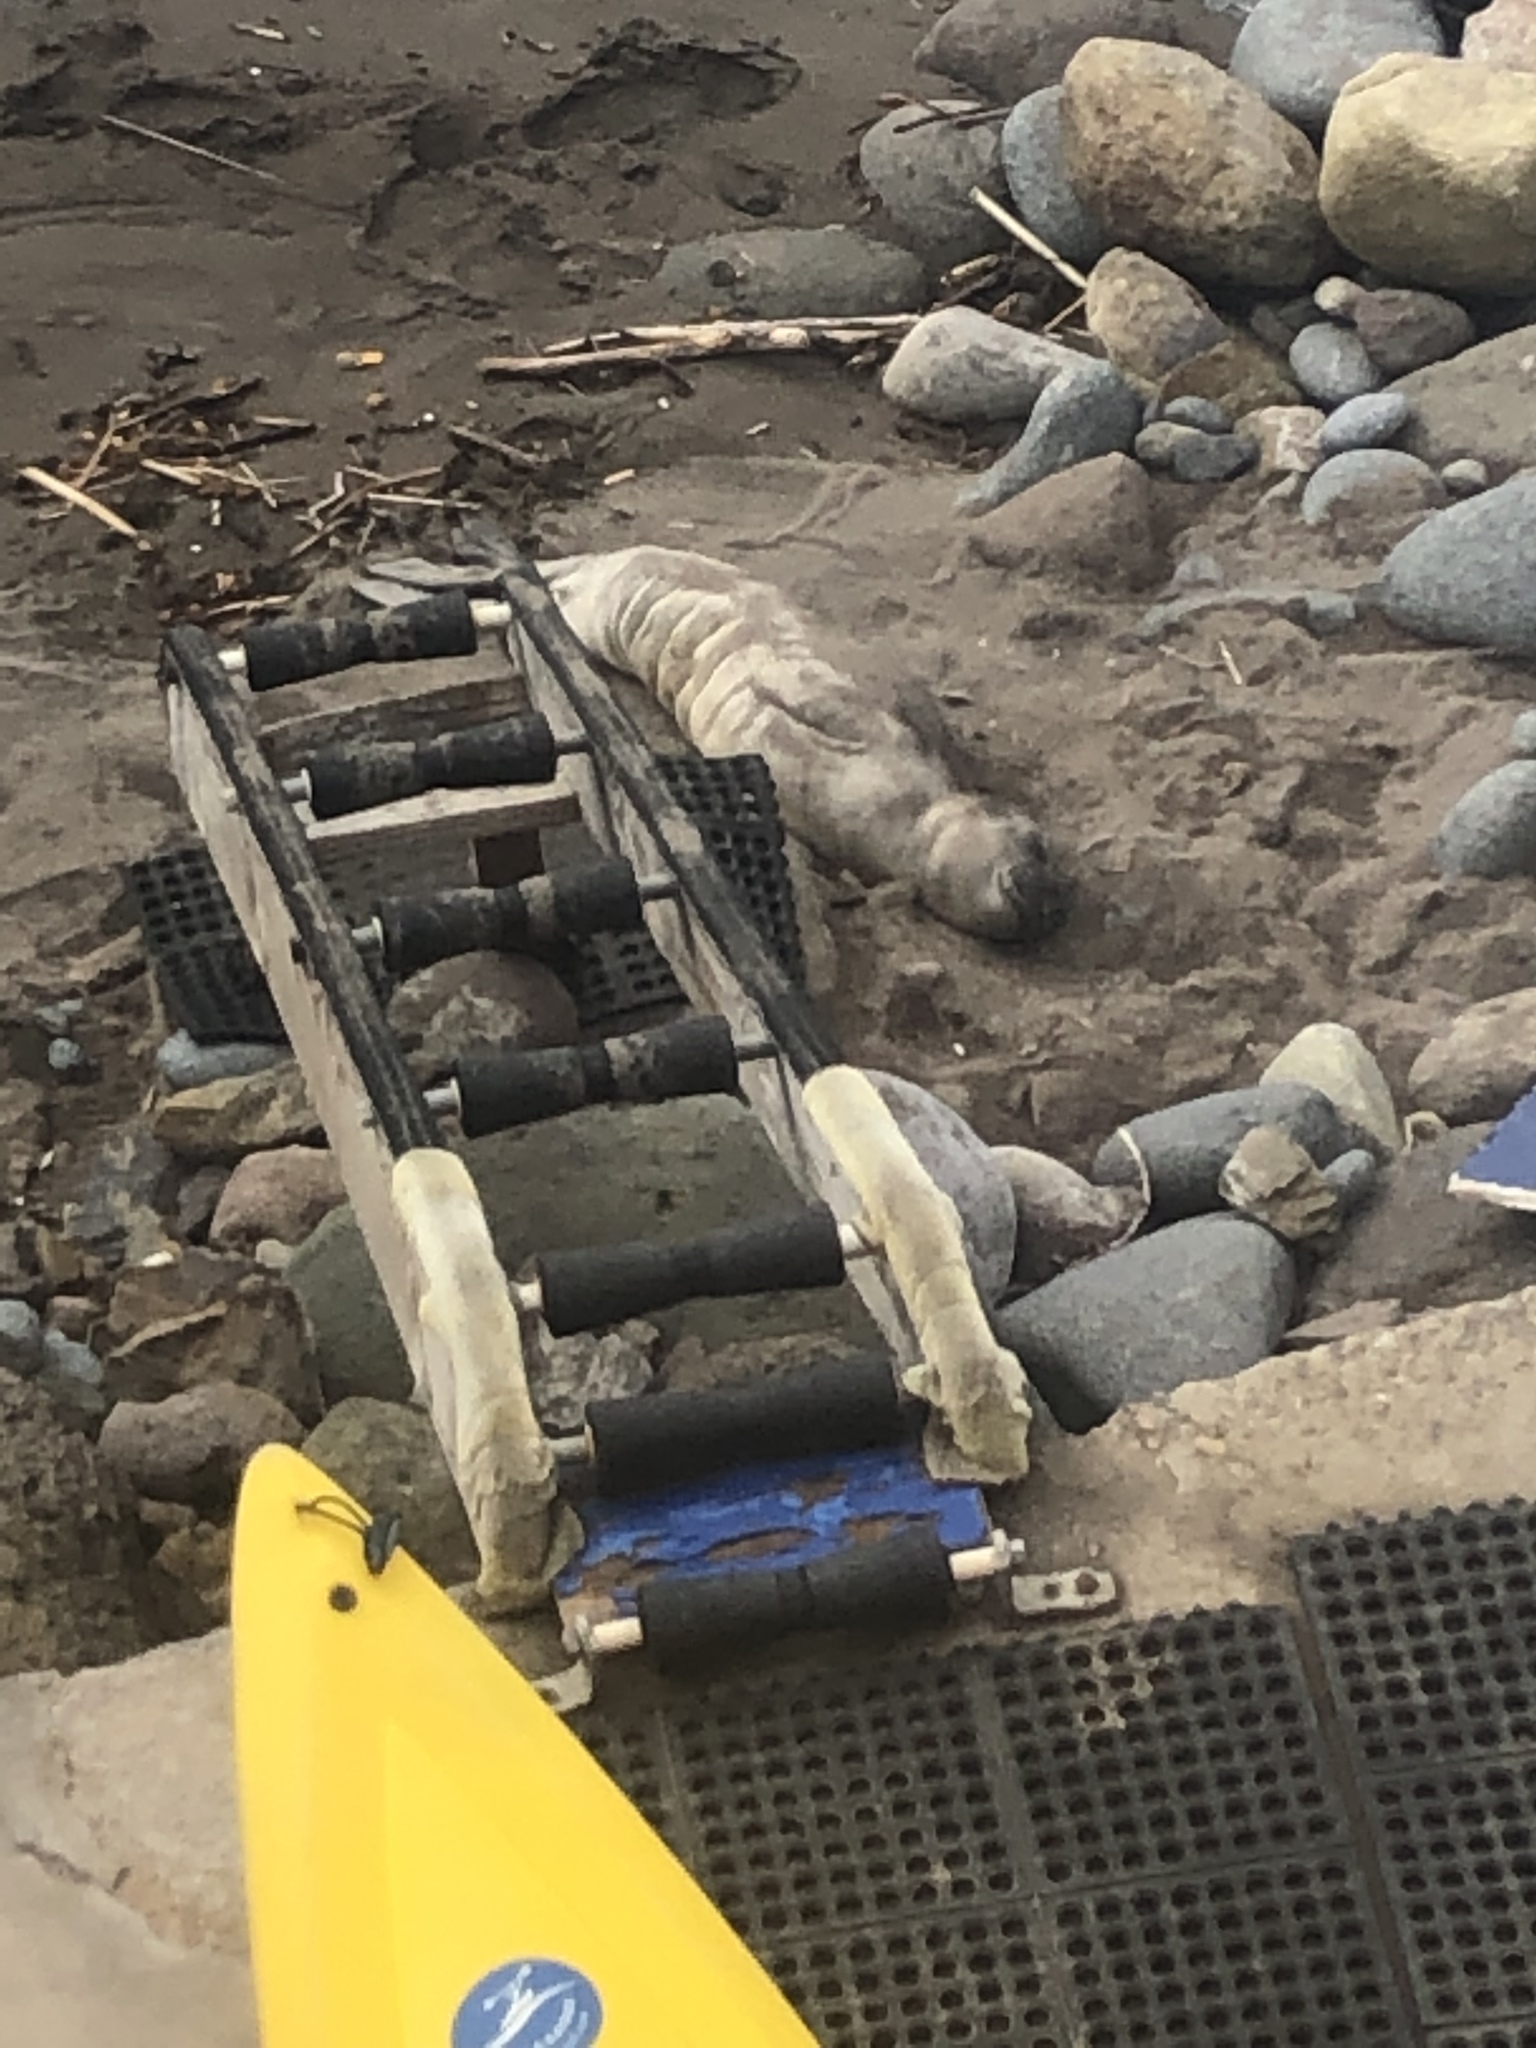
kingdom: Animalia
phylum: Chordata
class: Mammalia
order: Carnivora
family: Phocidae
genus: Mirounga
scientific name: Mirounga angustirostris
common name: Northern elephant seal
